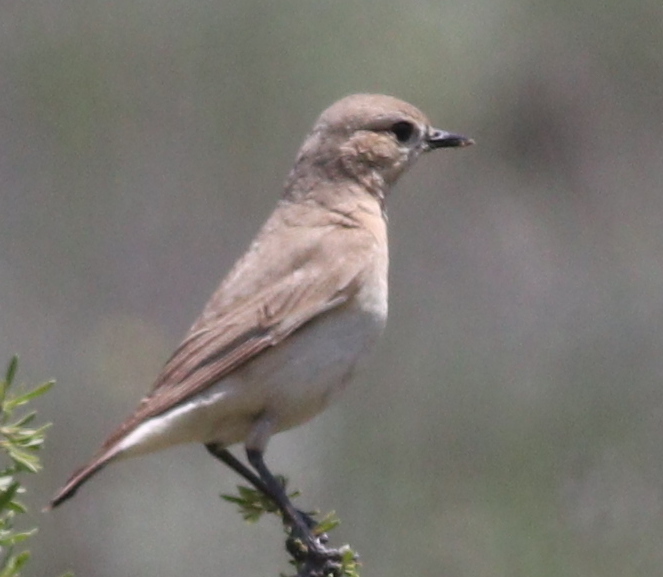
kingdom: Animalia
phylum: Chordata
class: Aves
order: Passeriformes
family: Muscicapidae
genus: Oenanthe
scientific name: Oenanthe isabellina
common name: Isabelline wheatear
